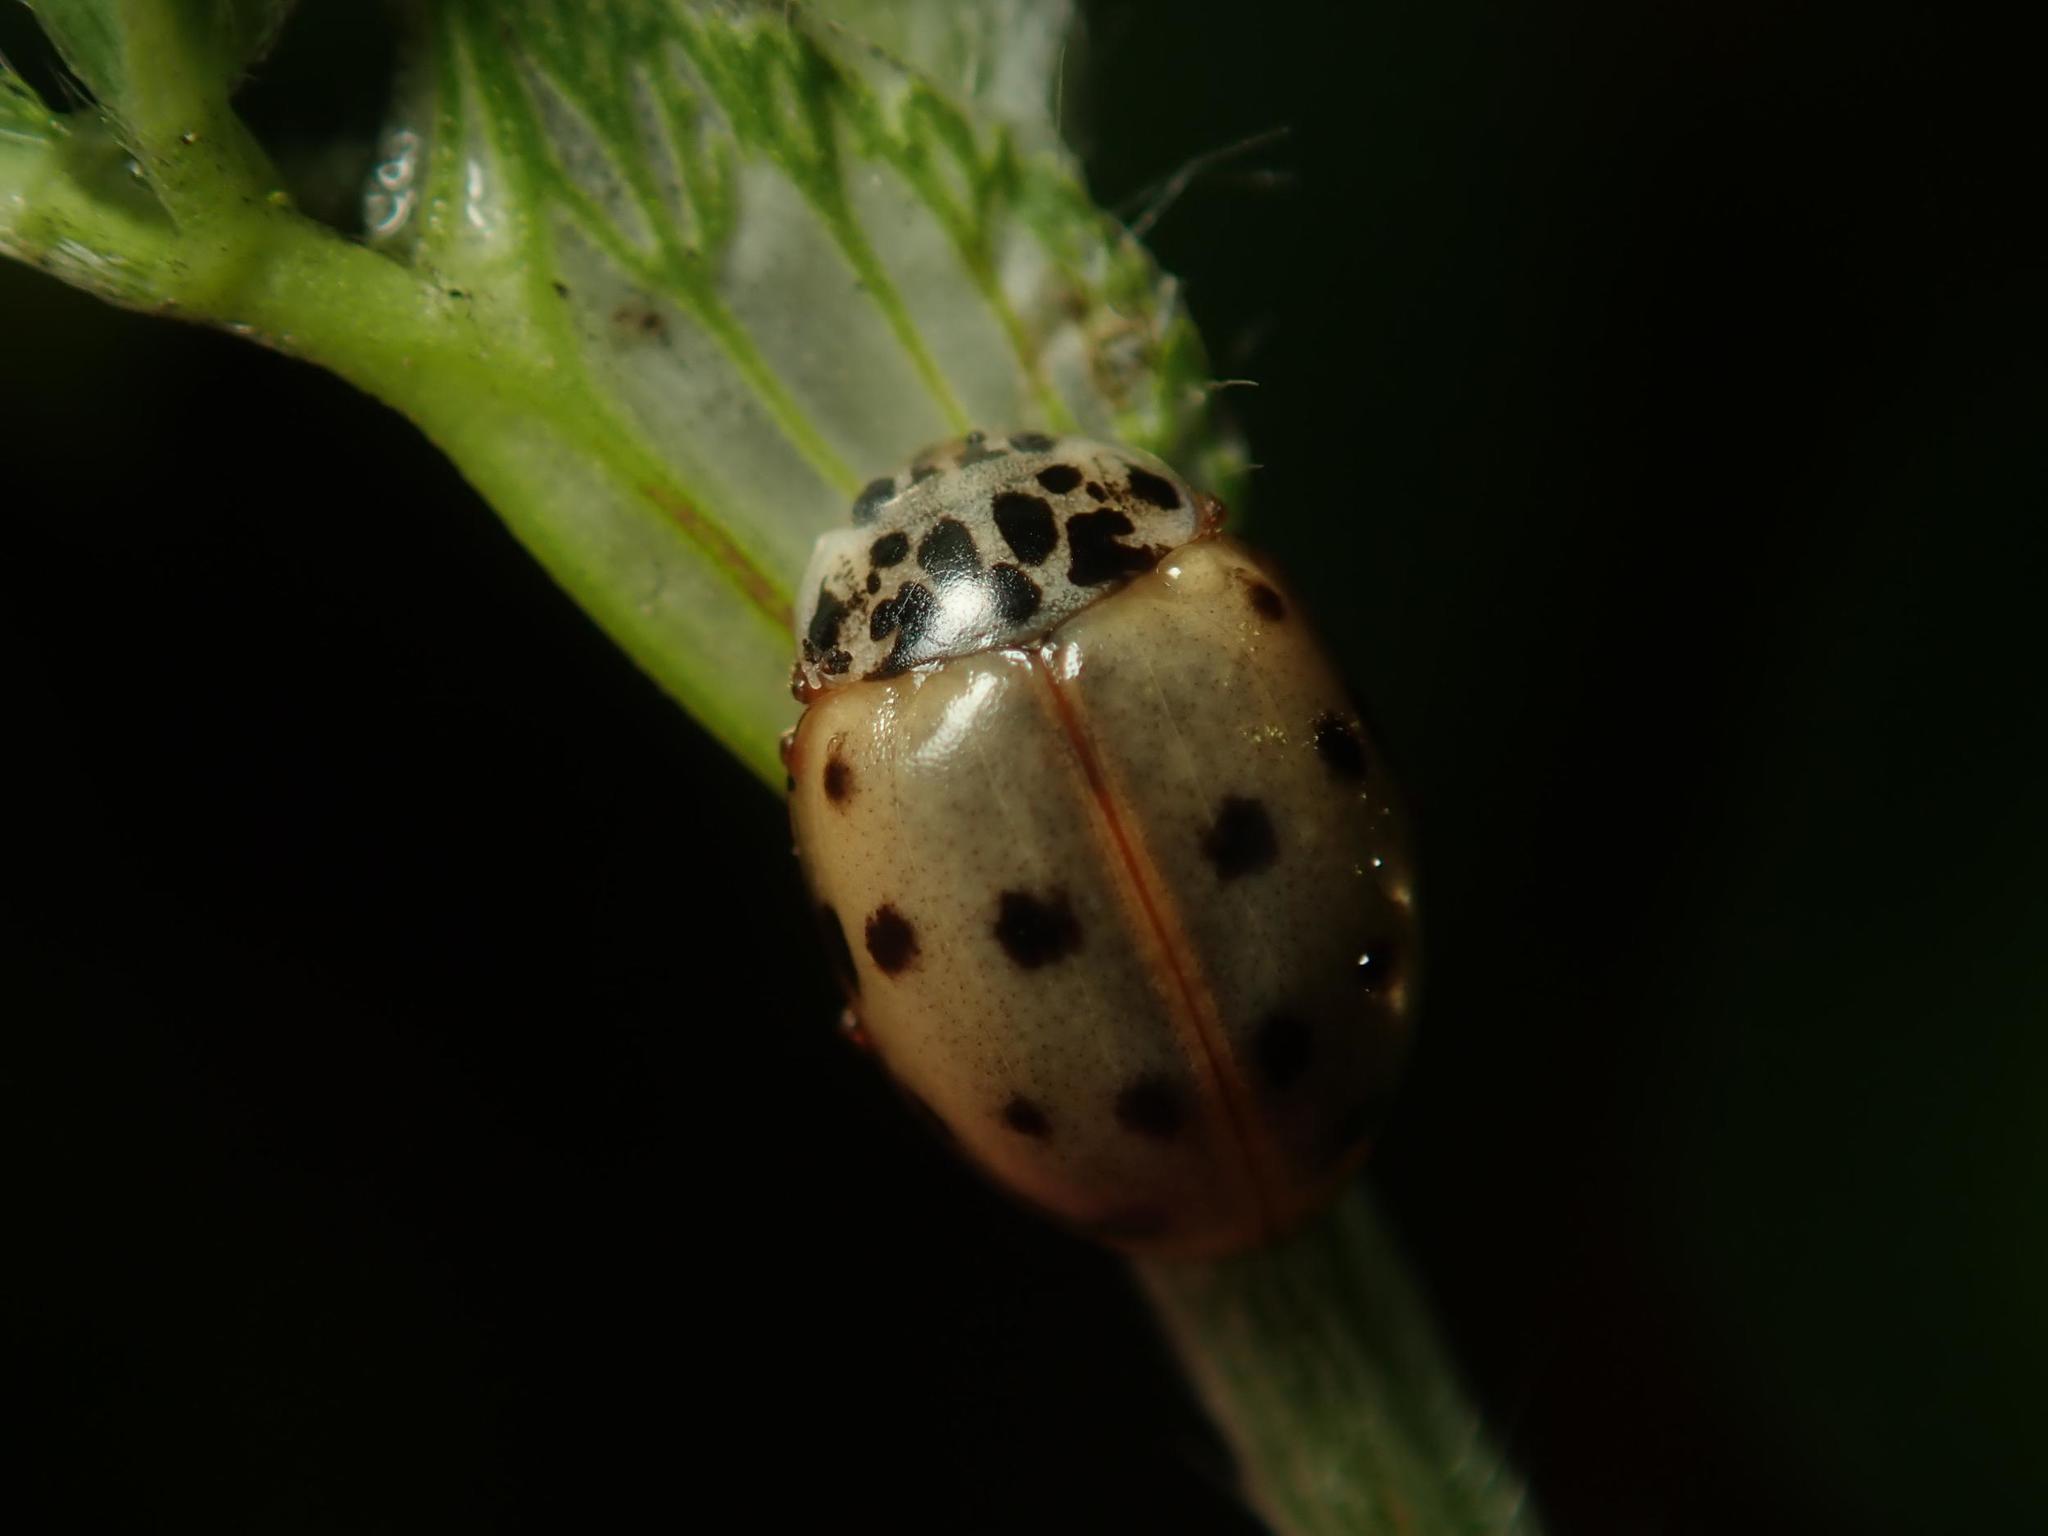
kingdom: Animalia
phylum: Arthropoda
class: Insecta
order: Coleoptera
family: Coccinellidae
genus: Harmonia
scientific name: Harmonia quadripunctata
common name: Cream-streaked ladybird
